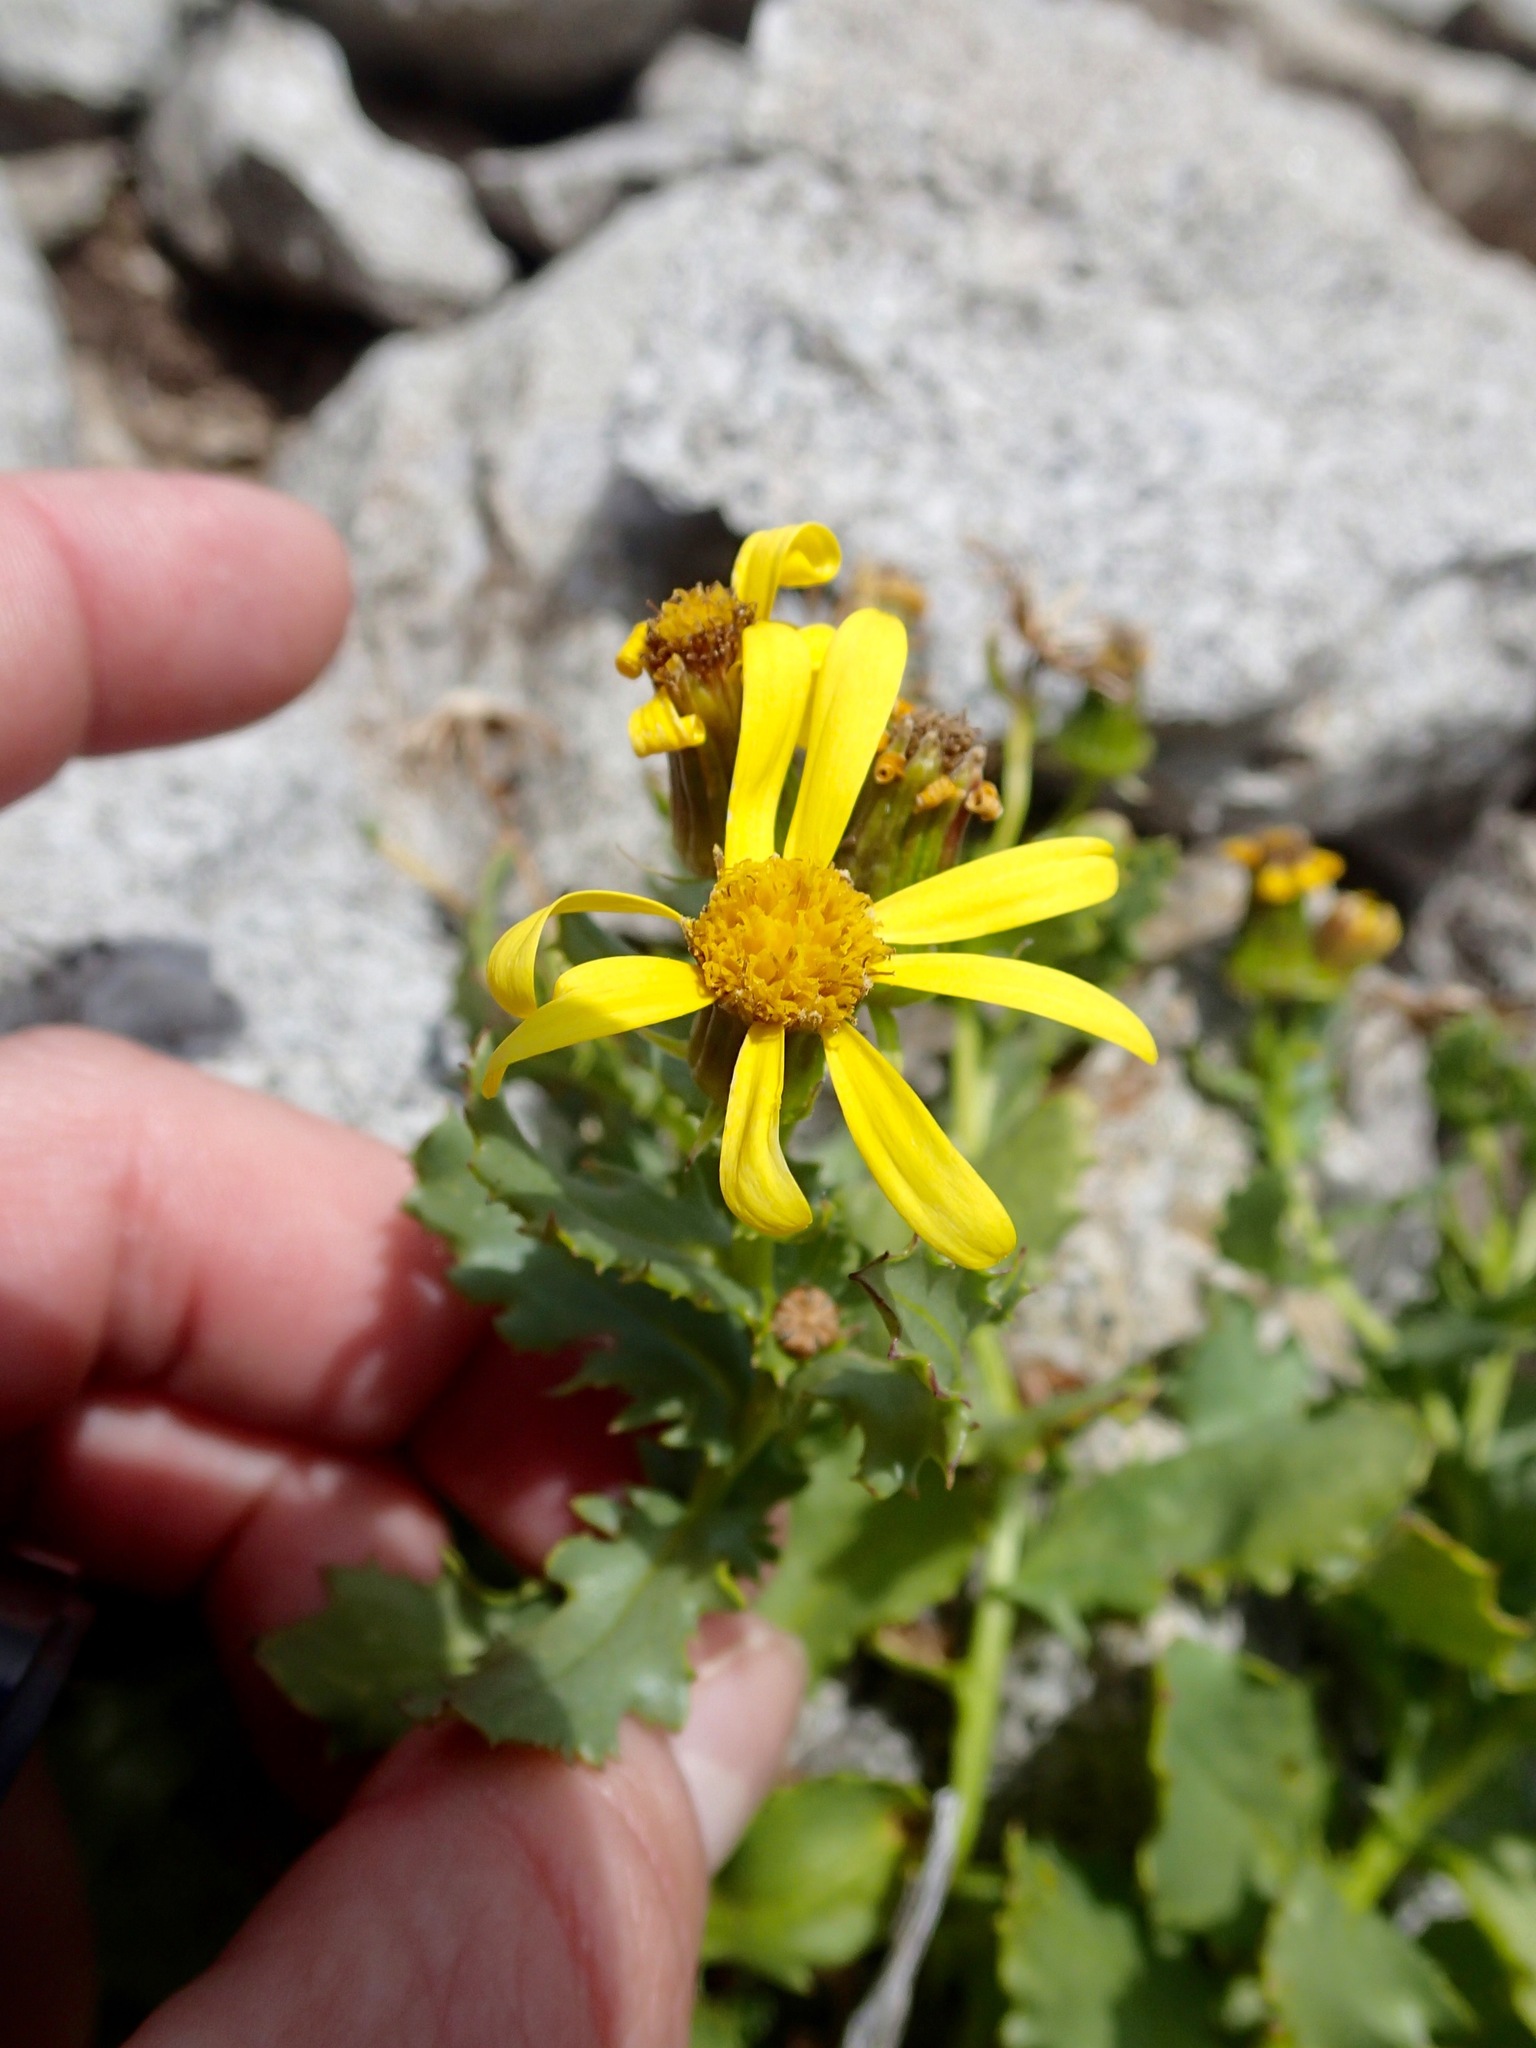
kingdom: Plantae
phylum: Tracheophyta
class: Magnoliopsida
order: Asterales
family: Asteraceae
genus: Senecio
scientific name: Senecio fremontii
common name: Fremont's groundsel
